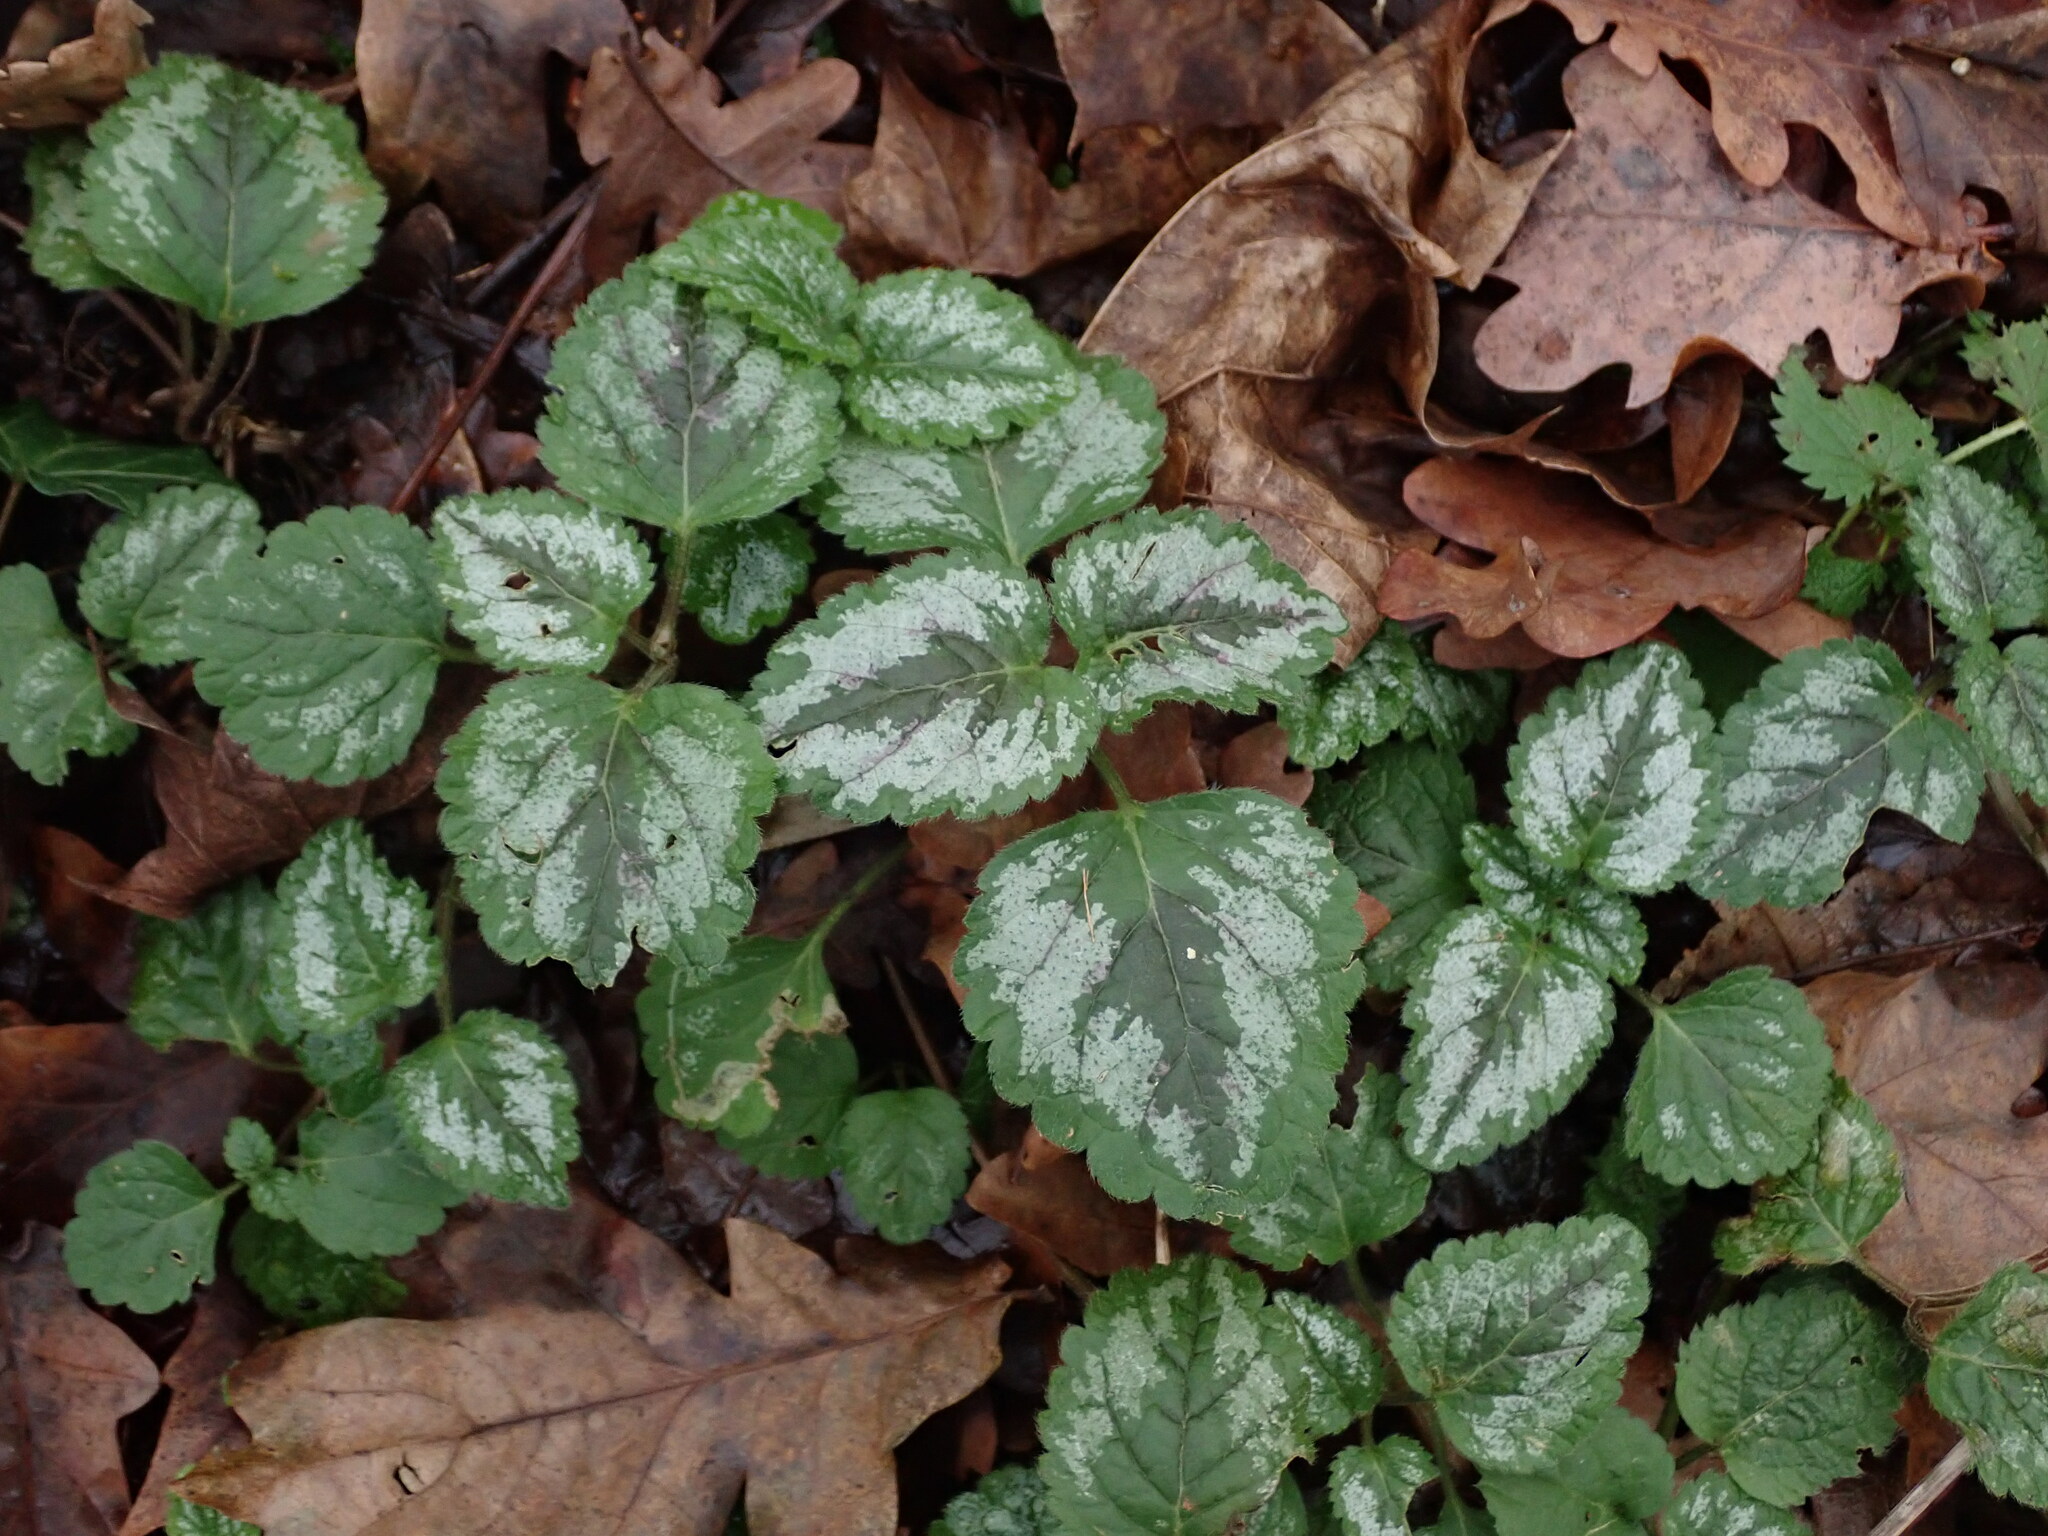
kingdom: Plantae
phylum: Tracheophyta
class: Magnoliopsida
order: Lamiales
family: Lamiaceae
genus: Lamium
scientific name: Lamium galeobdolon
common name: Yellow archangel
